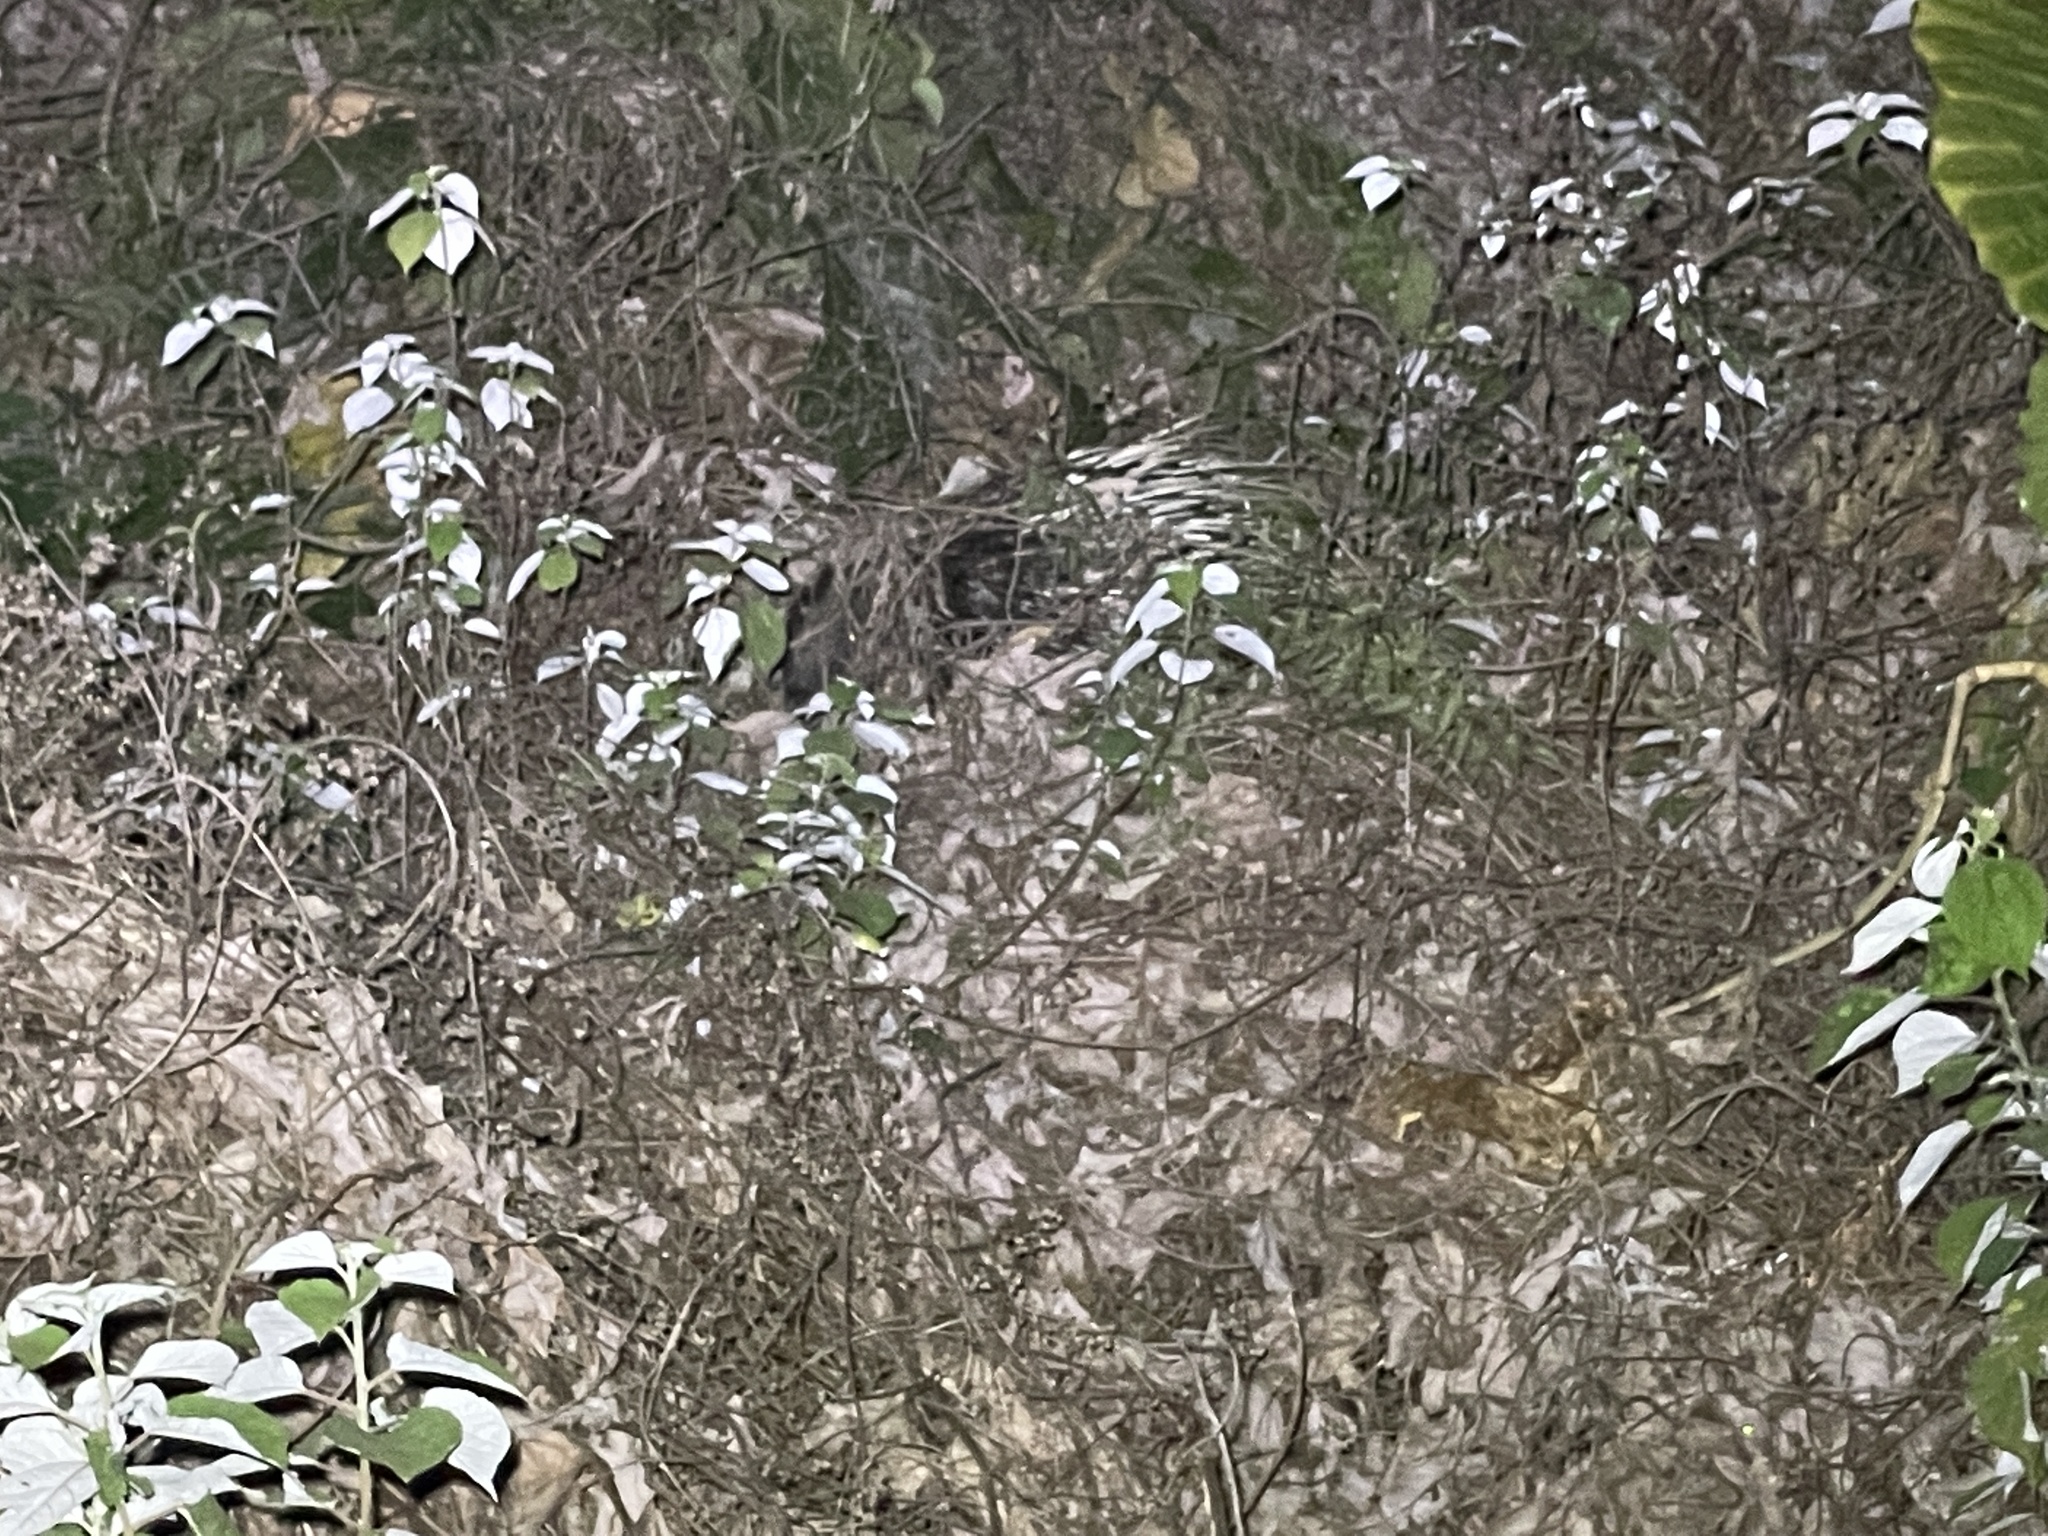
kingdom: Animalia
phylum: Chordata
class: Mammalia
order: Rodentia
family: Hystricidae
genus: Hystrix
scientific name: Hystrix brachyura
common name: Malayan porcupine
